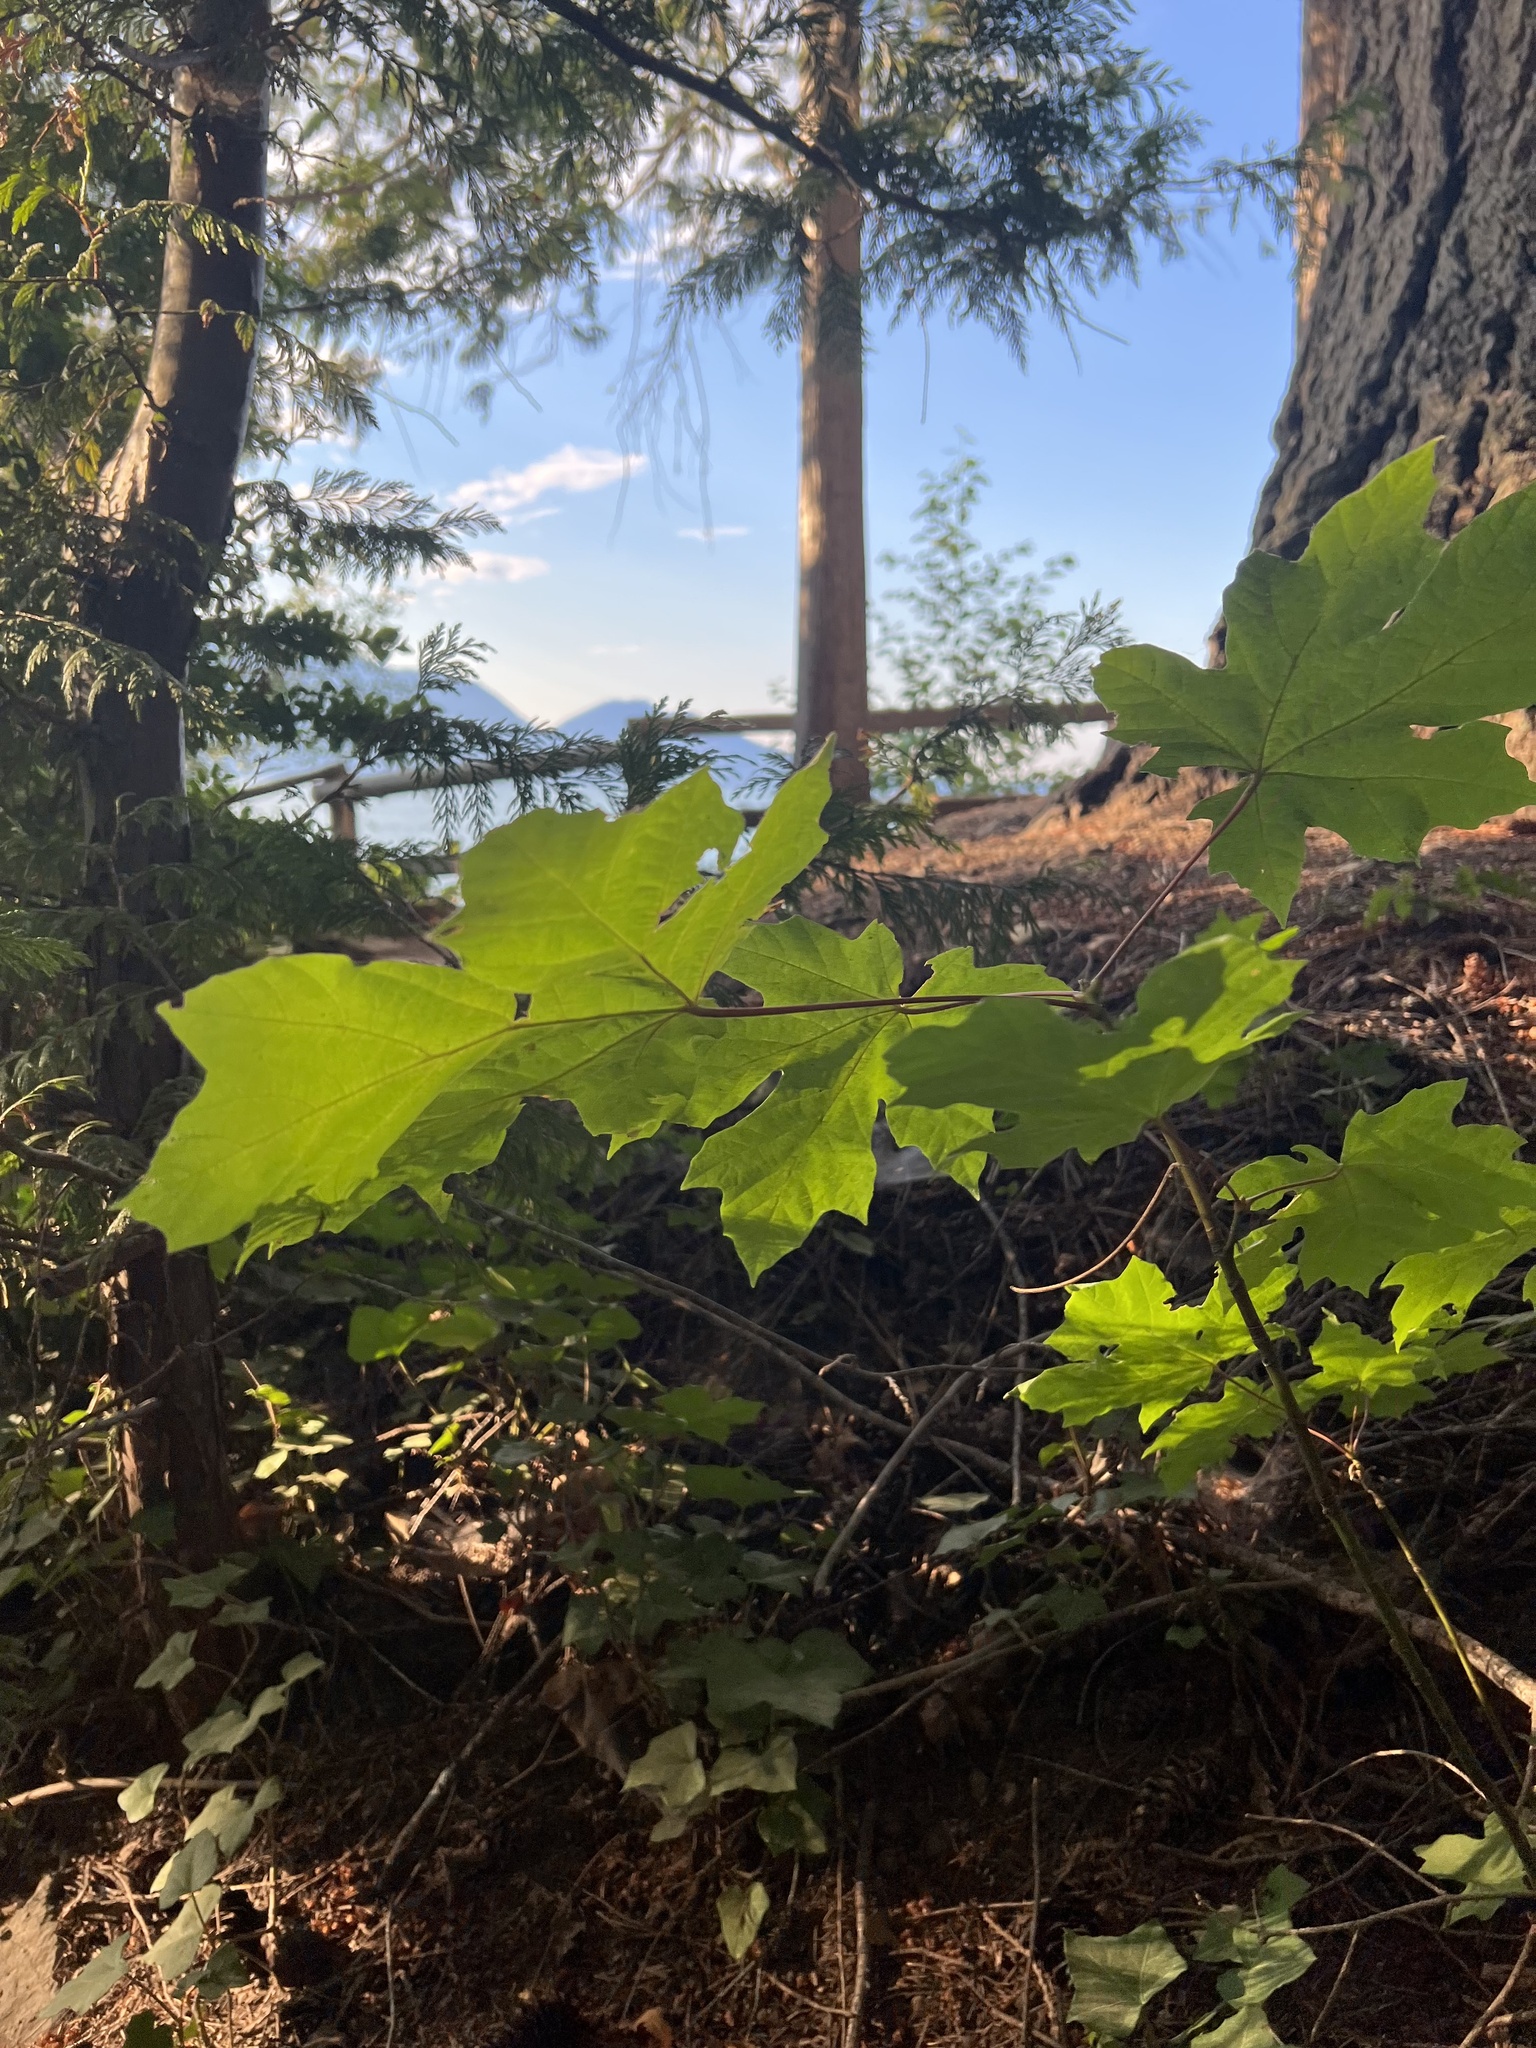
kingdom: Plantae
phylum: Tracheophyta
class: Magnoliopsida
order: Sapindales
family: Sapindaceae
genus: Acer
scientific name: Acer macrophyllum
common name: Oregon maple
